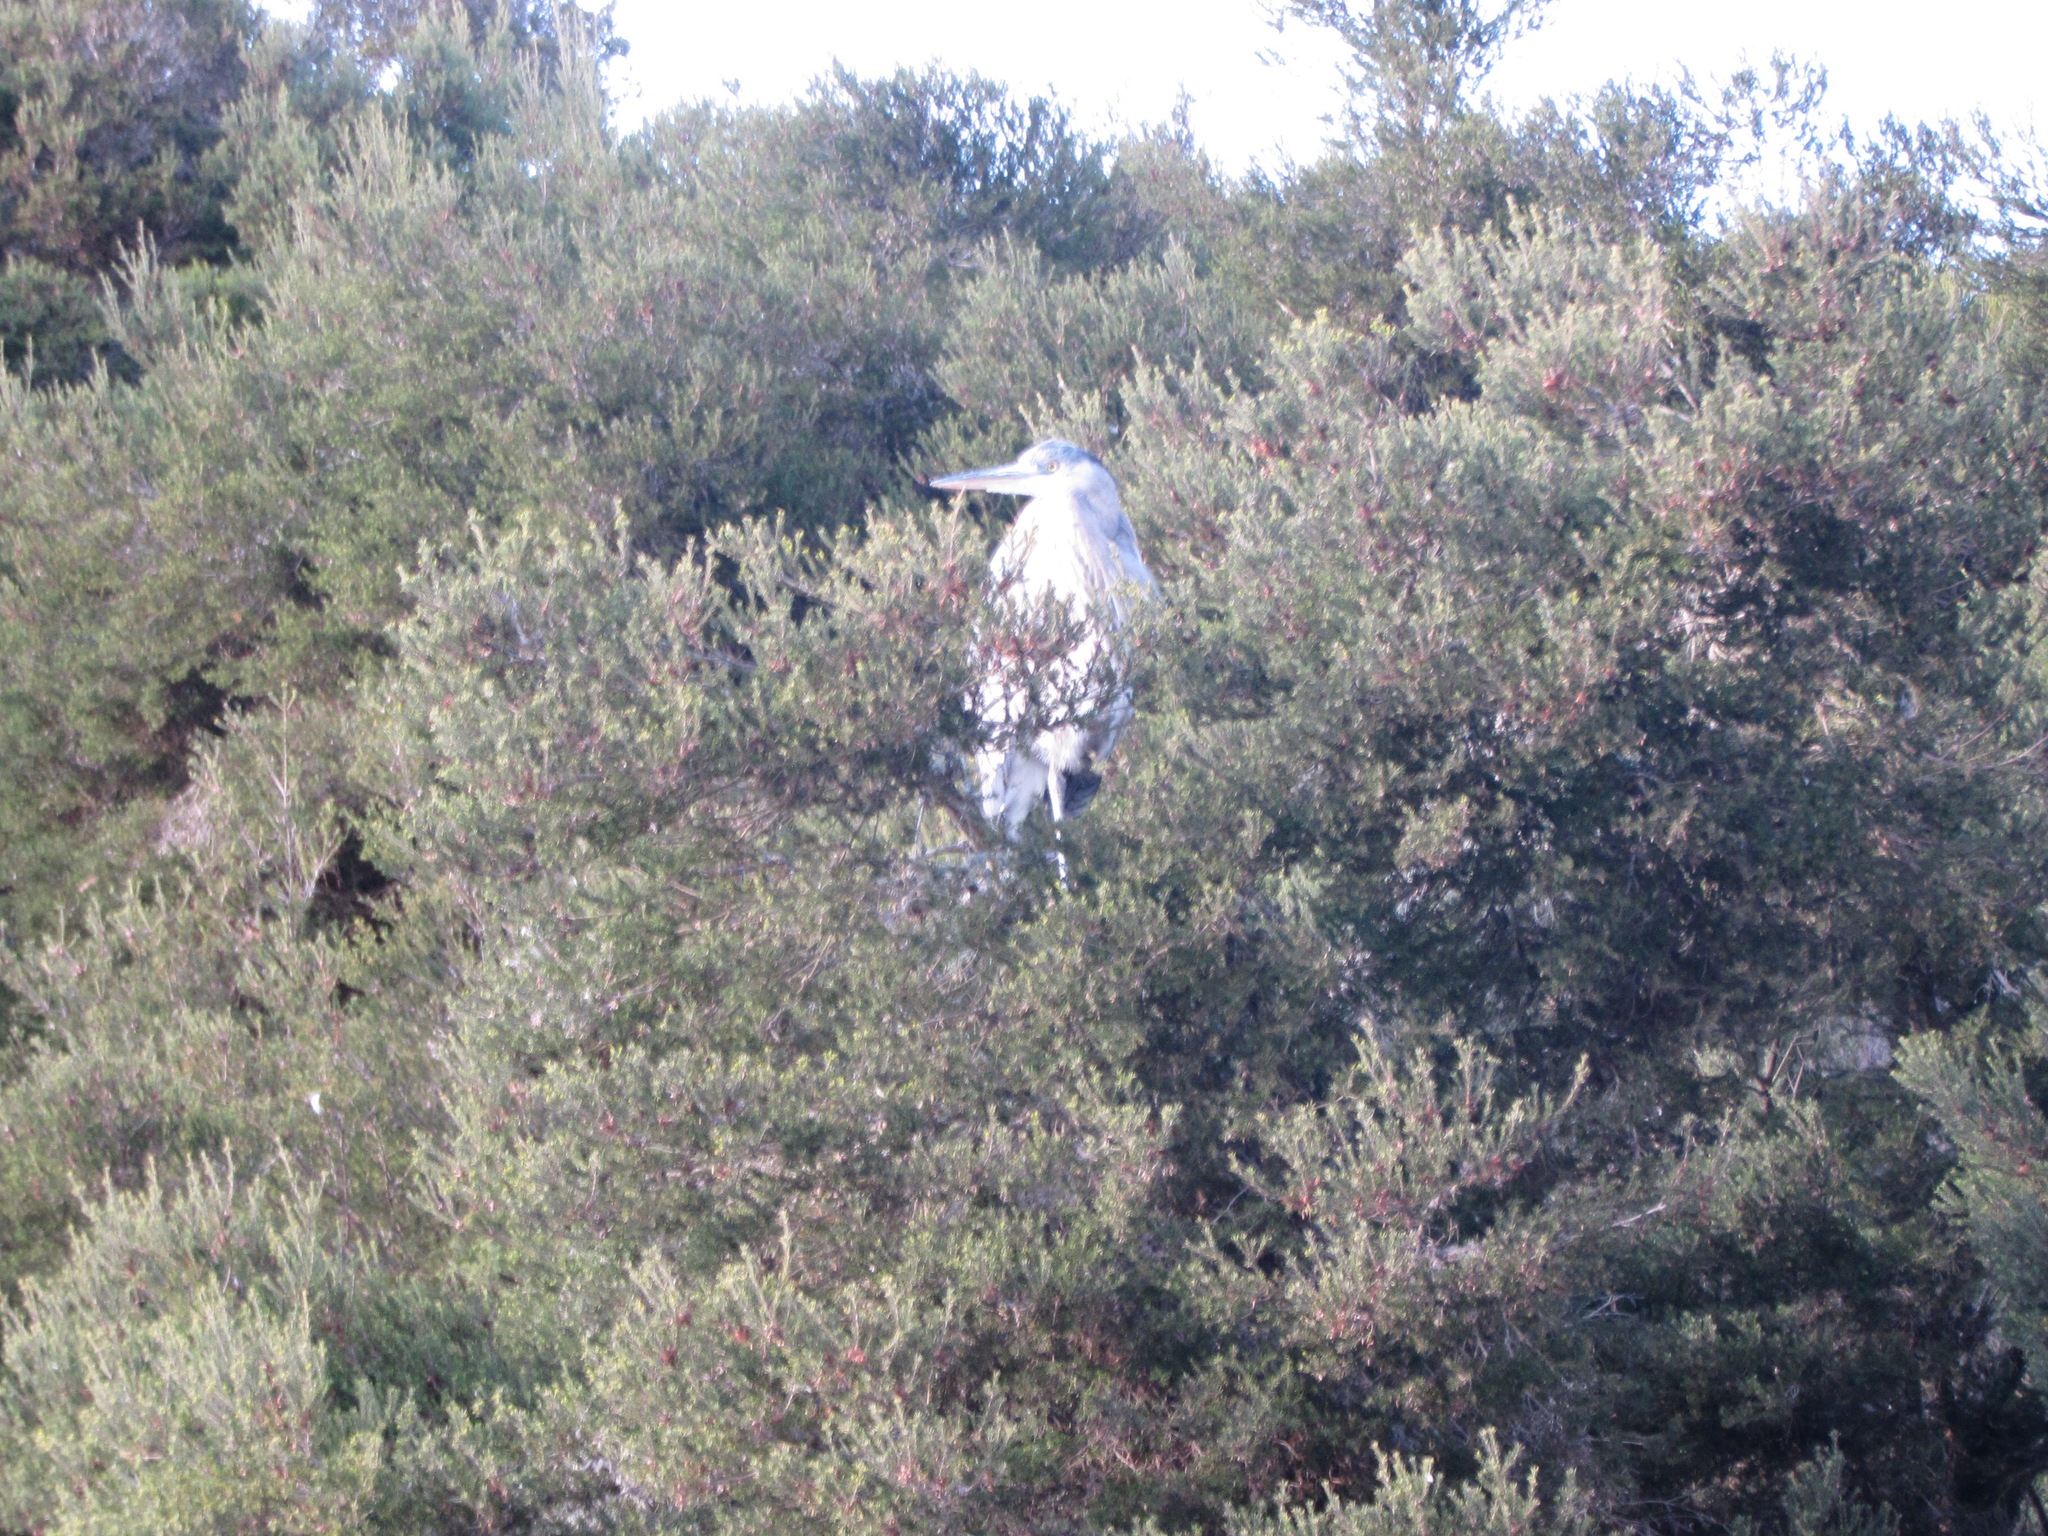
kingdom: Animalia
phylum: Chordata
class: Aves
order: Pelecaniformes
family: Ardeidae
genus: Ardea
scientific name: Ardea herodias
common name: Great blue heron
